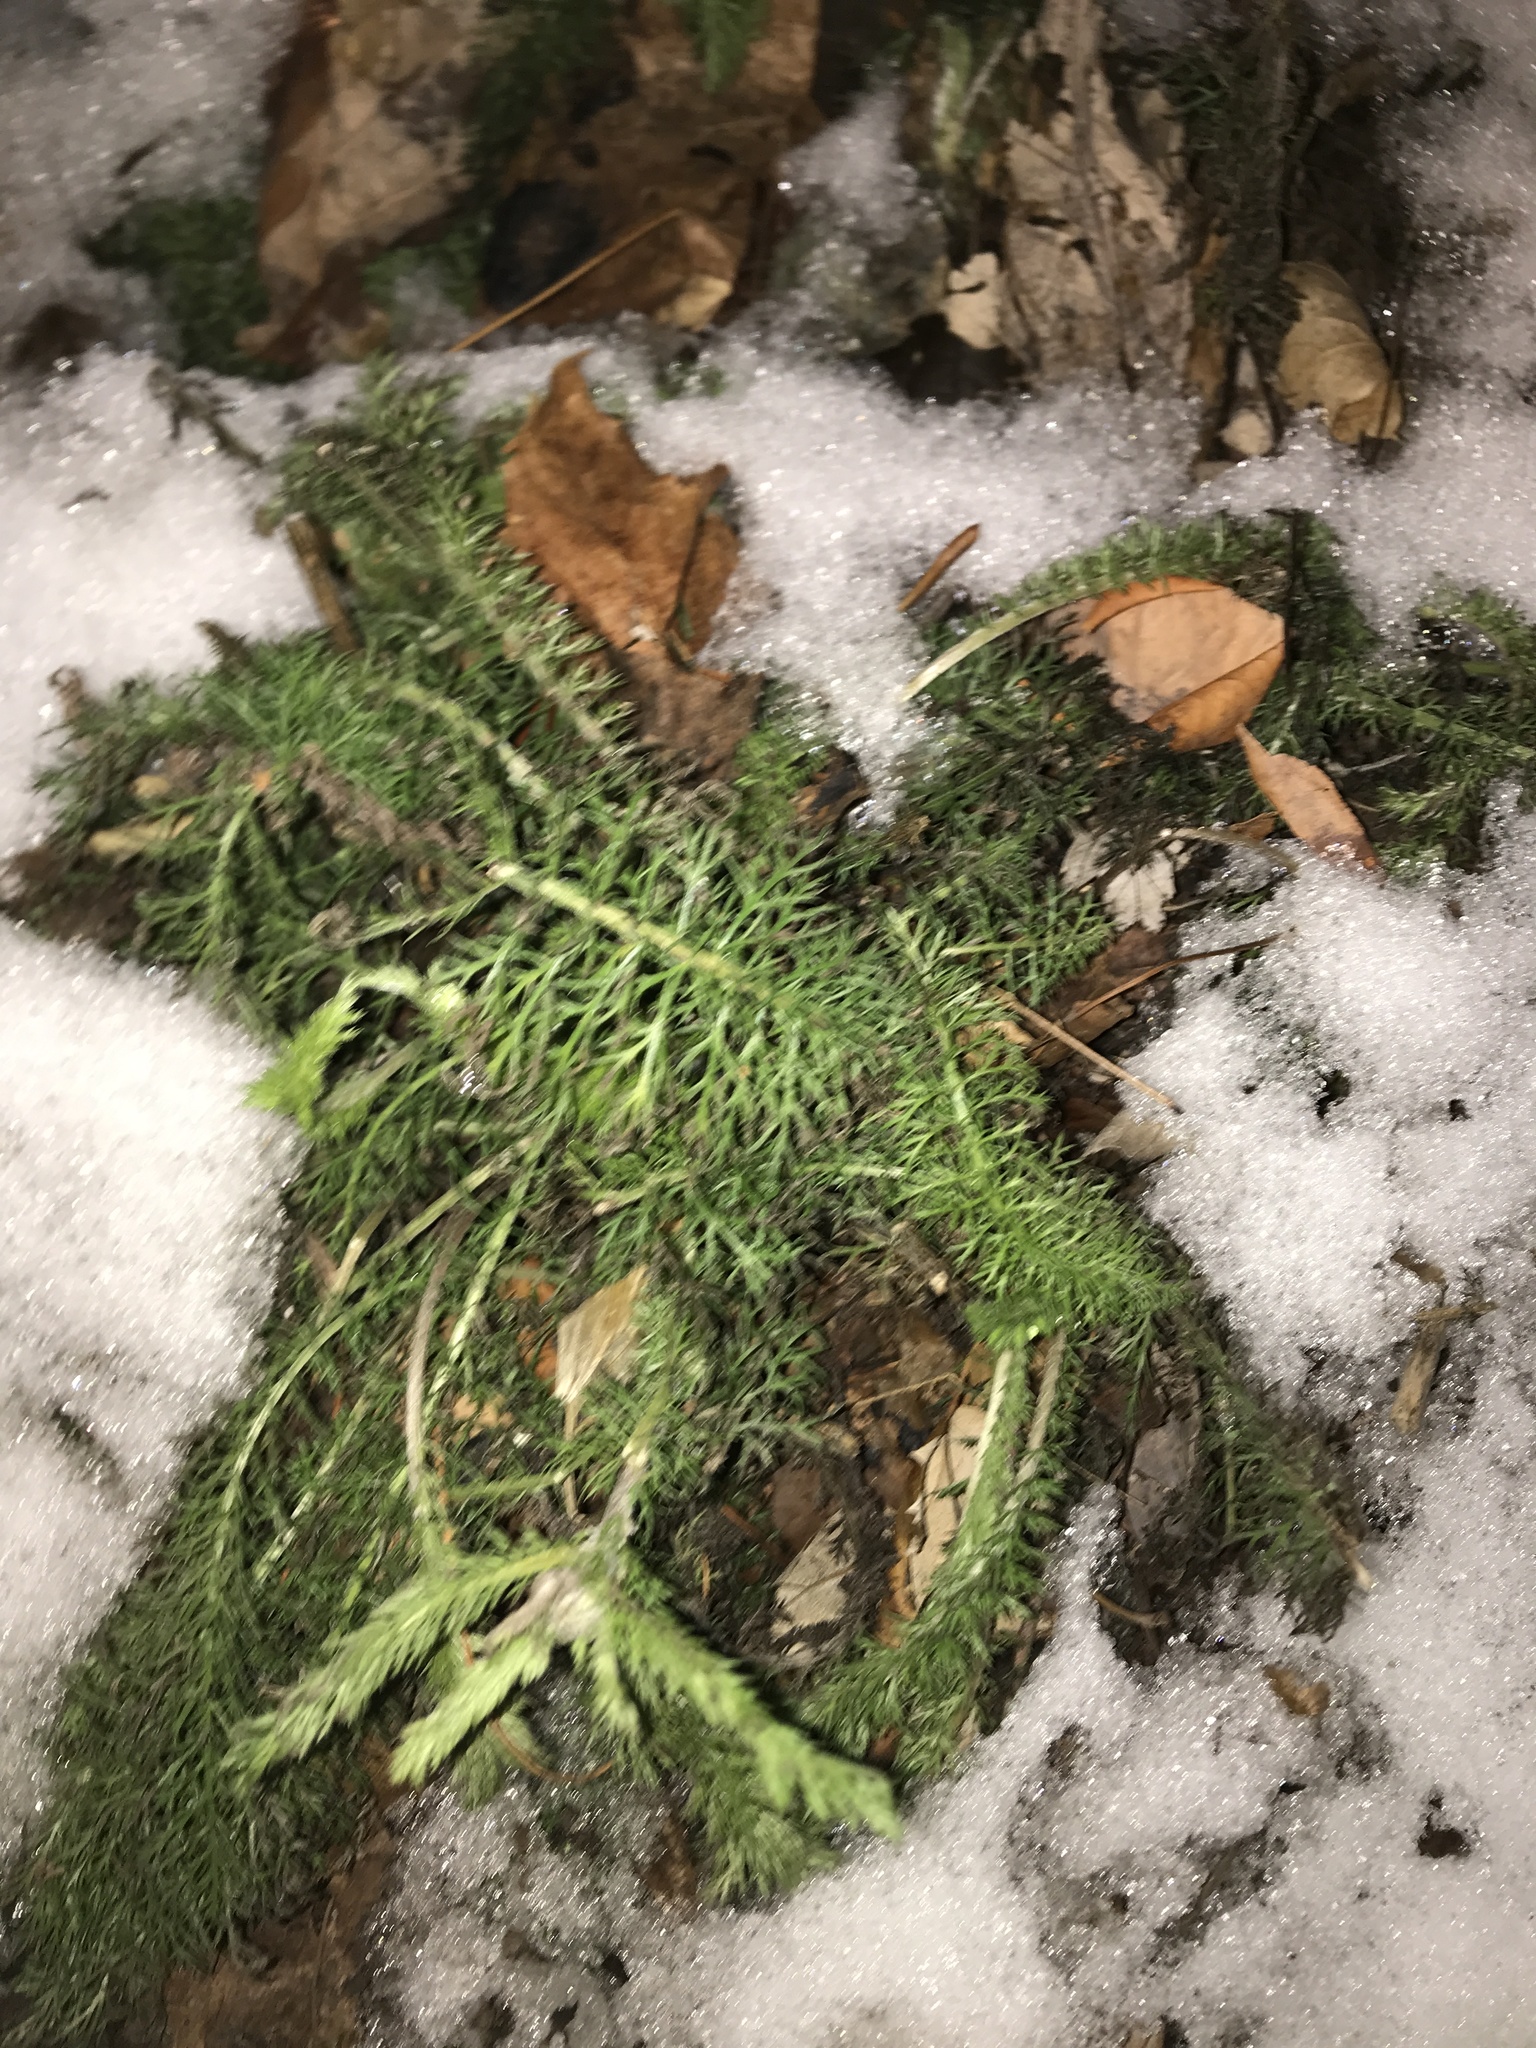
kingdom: Plantae
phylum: Tracheophyta
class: Magnoliopsida
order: Asterales
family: Asteraceae
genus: Achillea
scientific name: Achillea millefolium
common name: Yarrow
